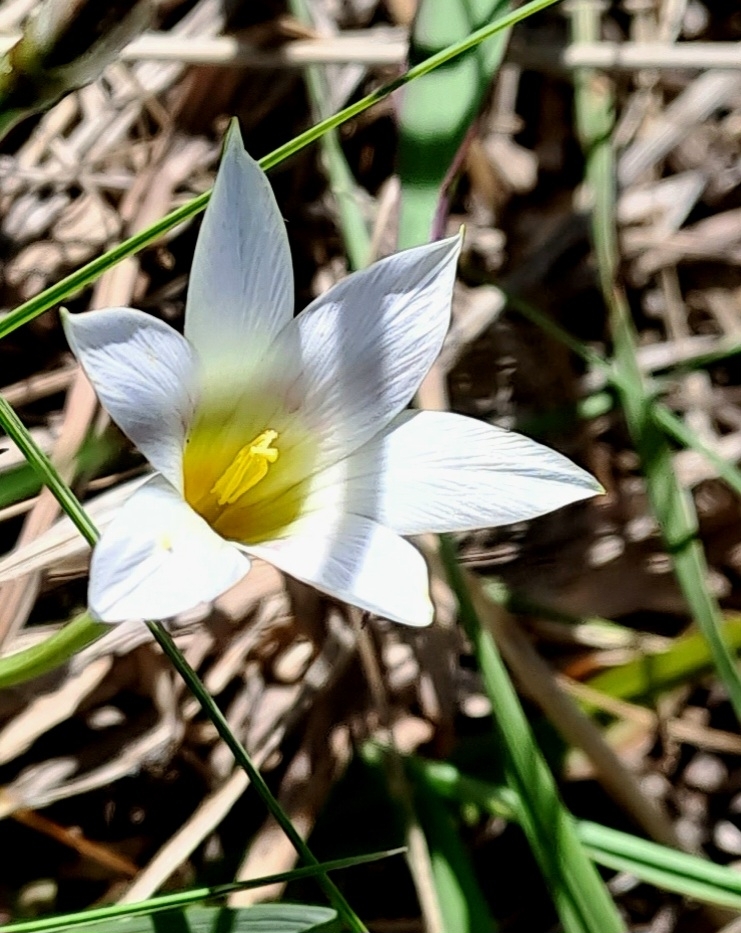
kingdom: Plantae
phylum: Tracheophyta
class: Liliopsida
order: Asparagales
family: Iridaceae
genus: Romulea
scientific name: Romulea flava
